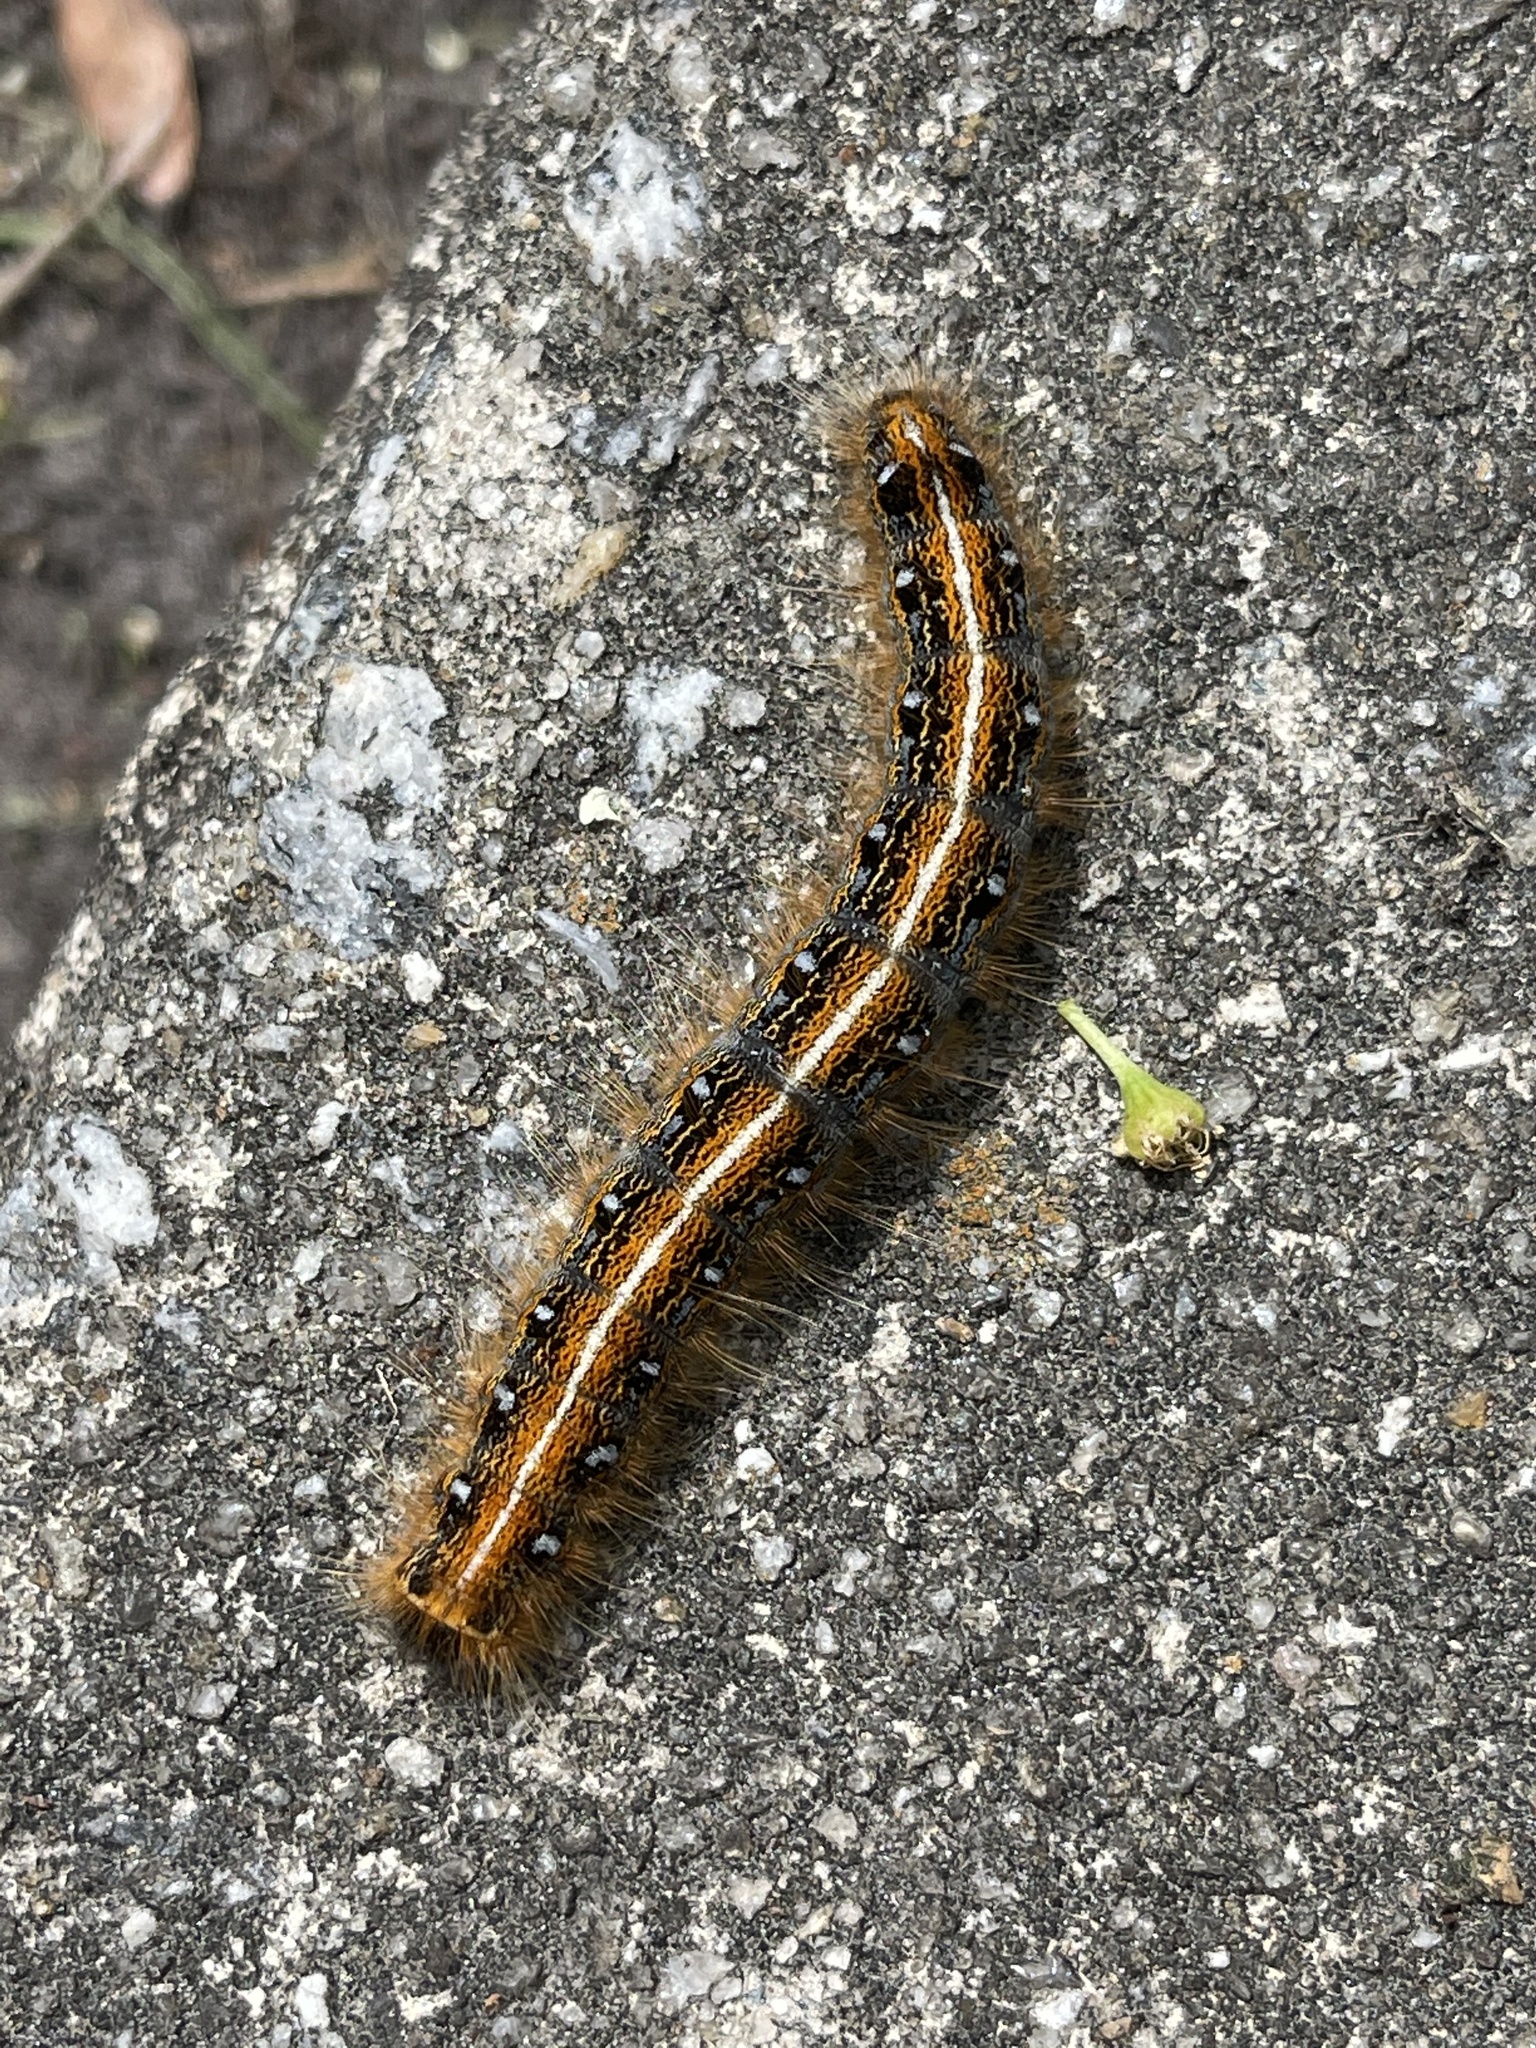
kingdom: Animalia
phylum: Arthropoda
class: Insecta
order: Lepidoptera
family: Lasiocampidae
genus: Malacosoma
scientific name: Malacosoma americana
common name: Eastern tent caterpillar moth
